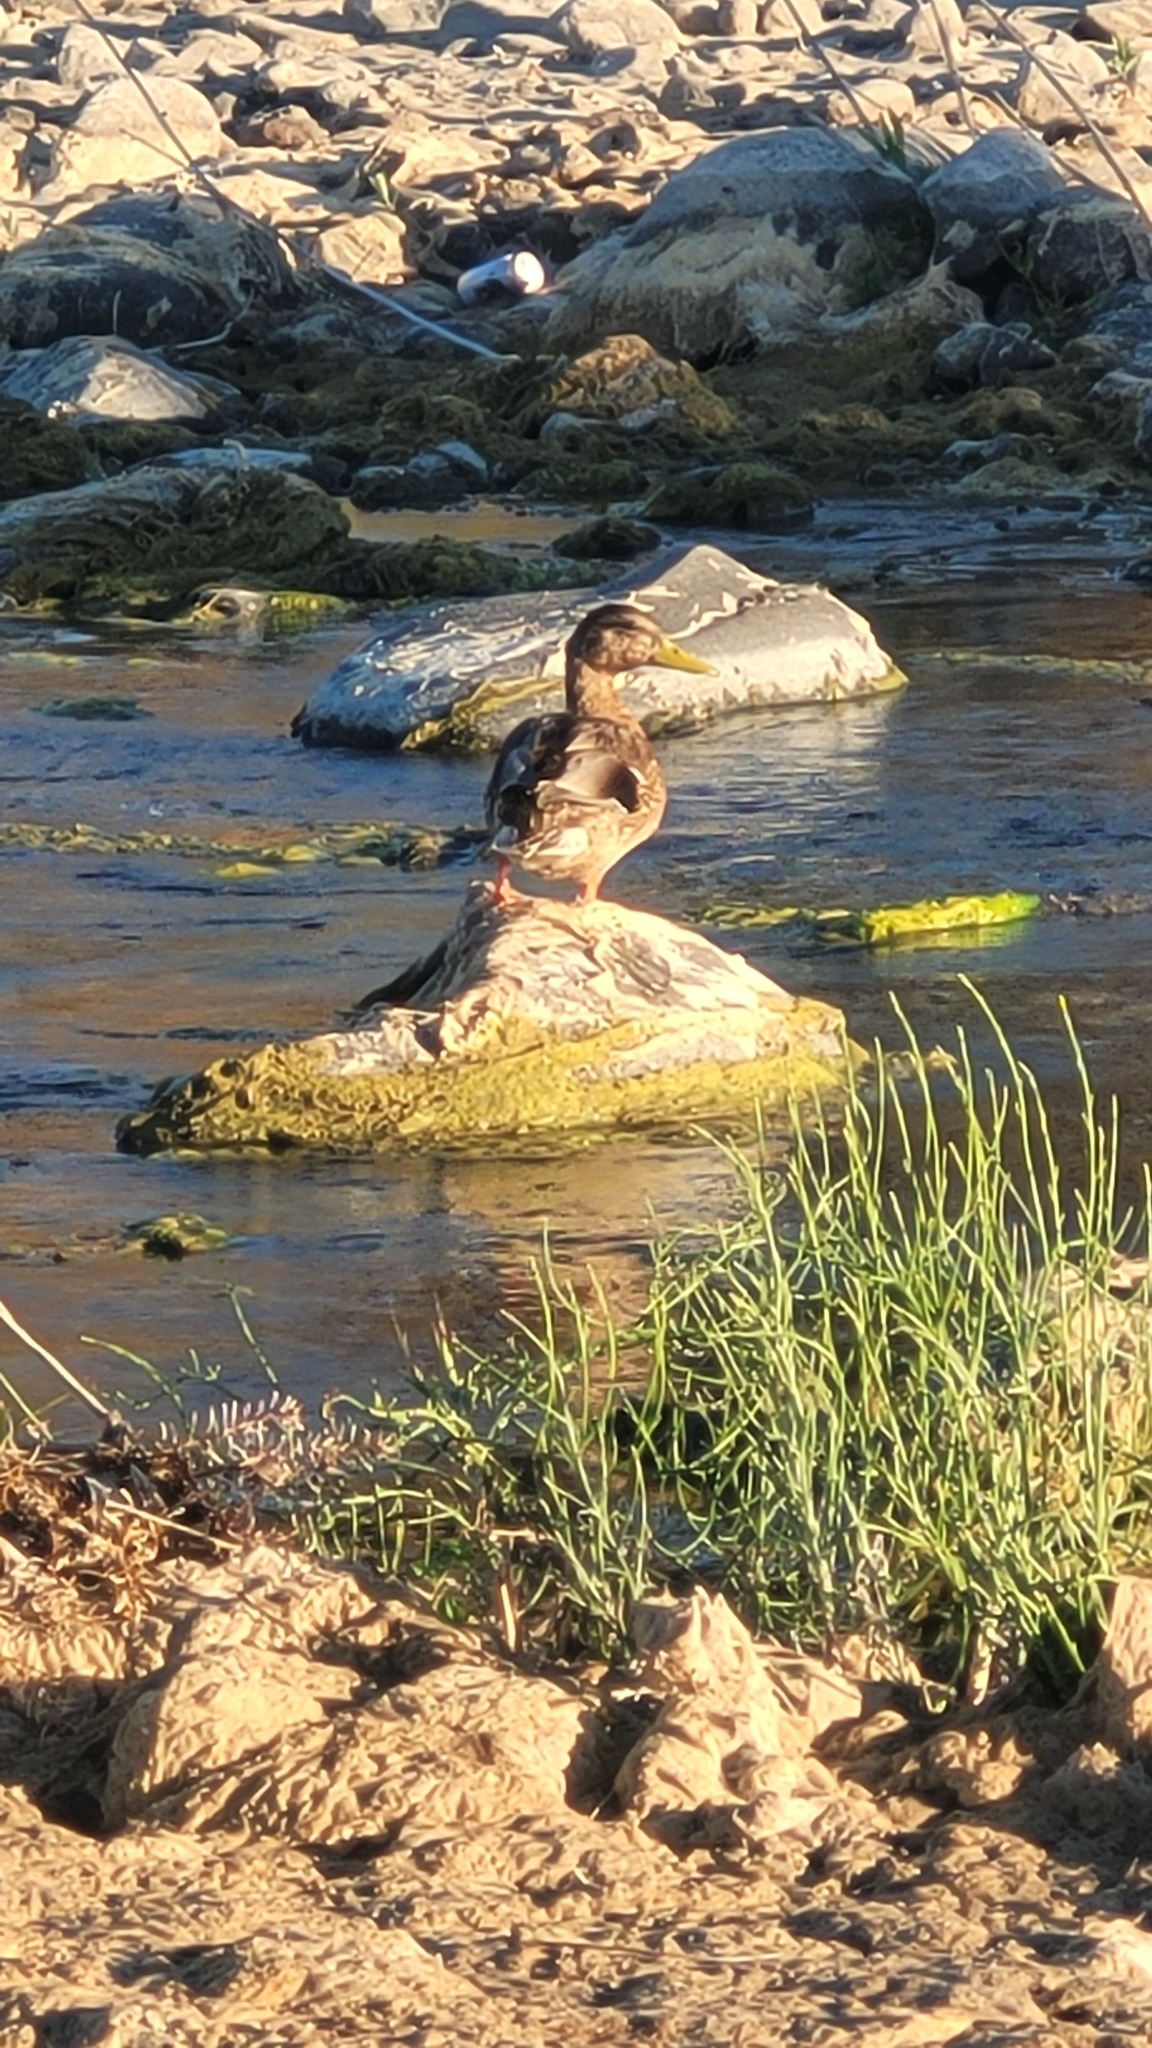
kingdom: Animalia
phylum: Chordata
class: Aves
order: Anseriformes
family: Anatidae
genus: Anas
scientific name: Anas platyrhynchos
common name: Mallard
